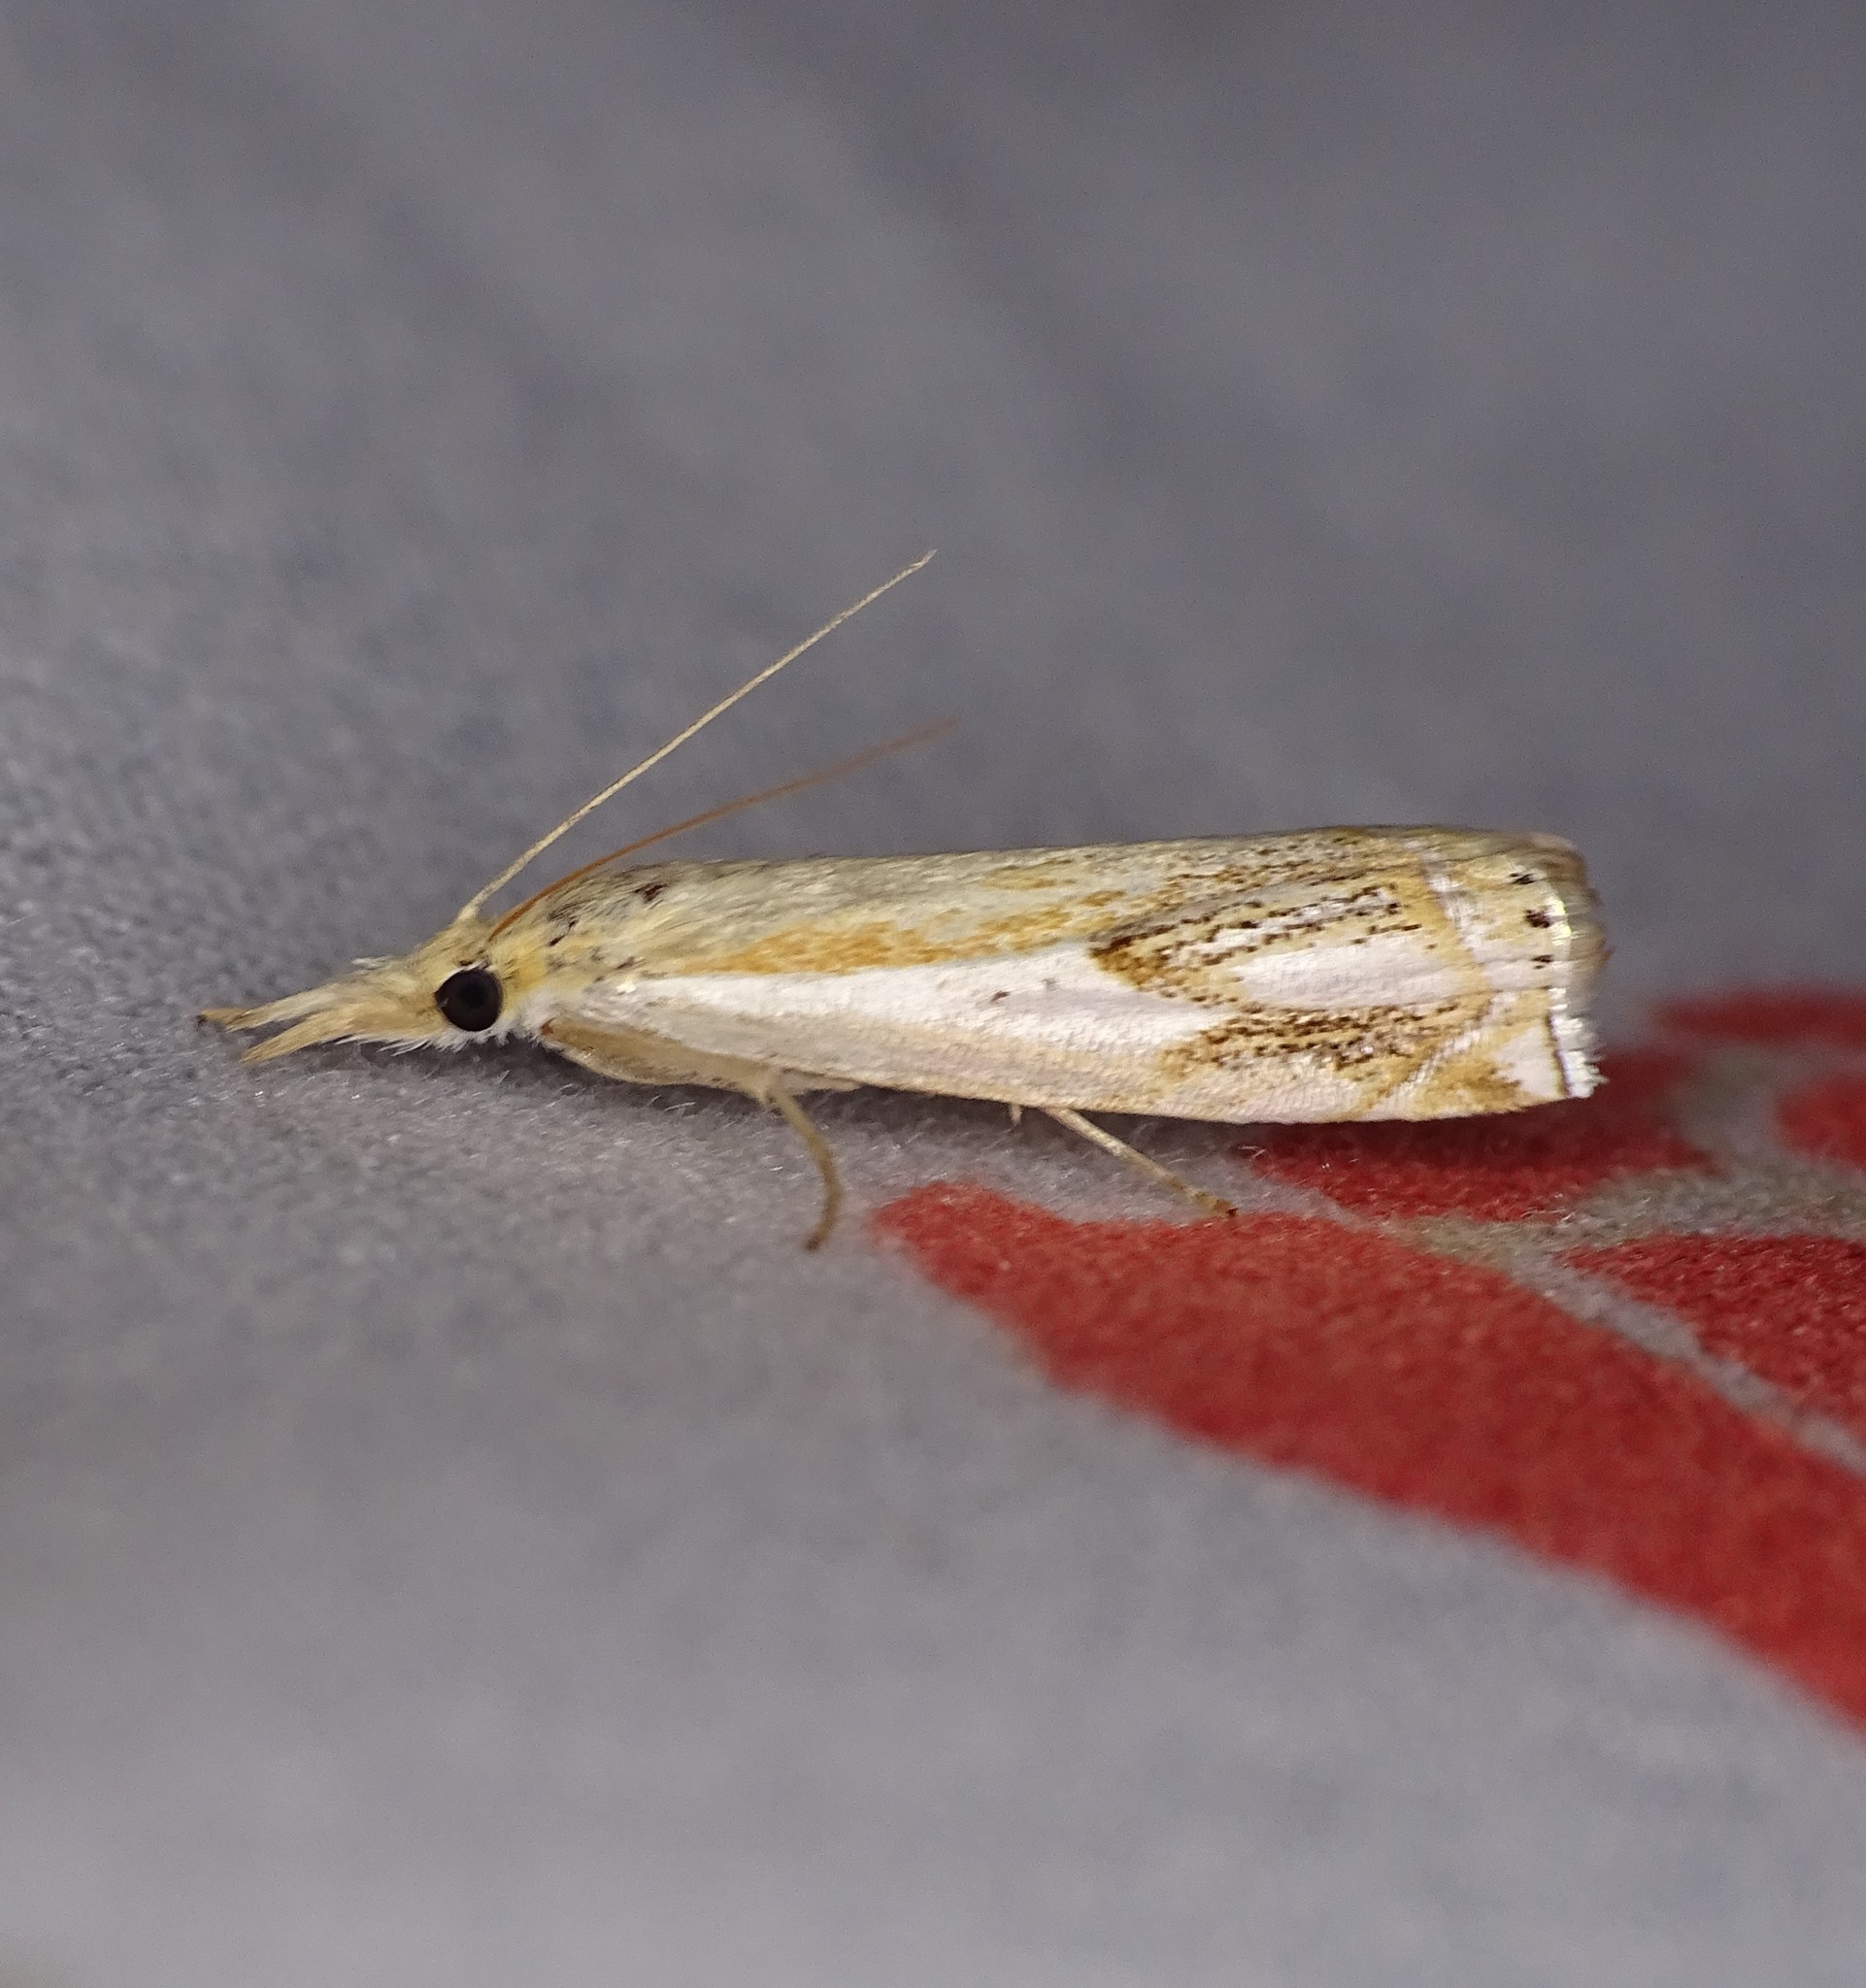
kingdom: Animalia
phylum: Arthropoda
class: Insecta
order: Lepidoptera
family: Crambidae
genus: Crambus
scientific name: Crambus agitatellus
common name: Double-banded grass-veneer
